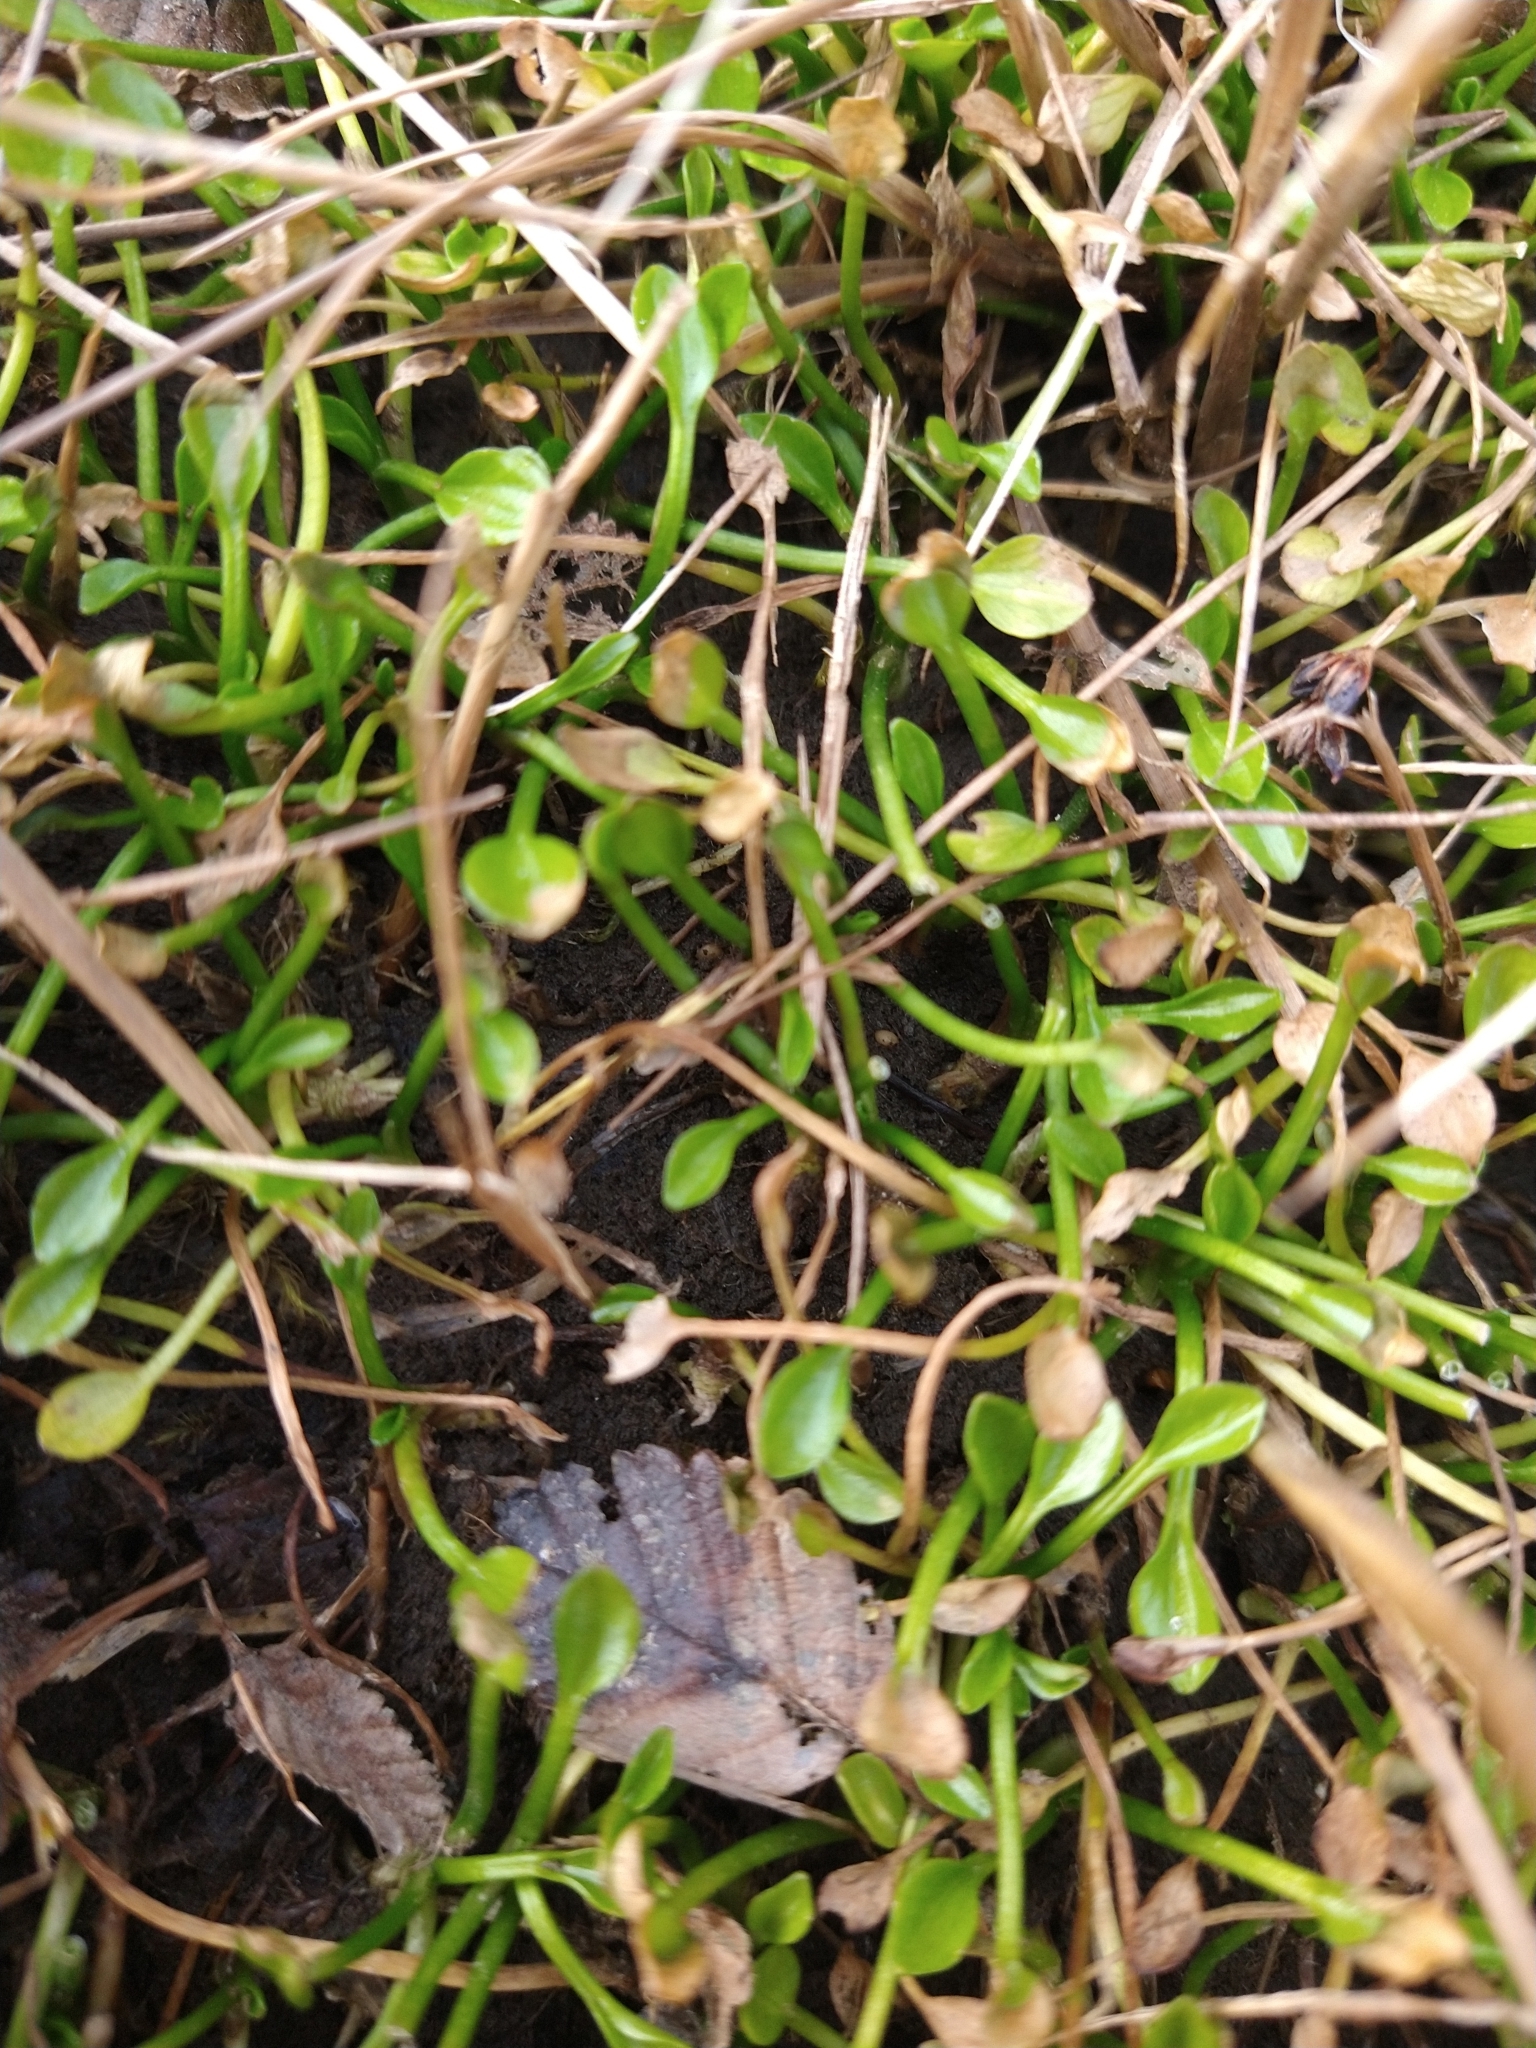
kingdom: Plantae
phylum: Tracheophyta
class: Magnoliopsida
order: Ranunculales
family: Ranunculaceae
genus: Ranunculus
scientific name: Ranunculus hydrophilus
